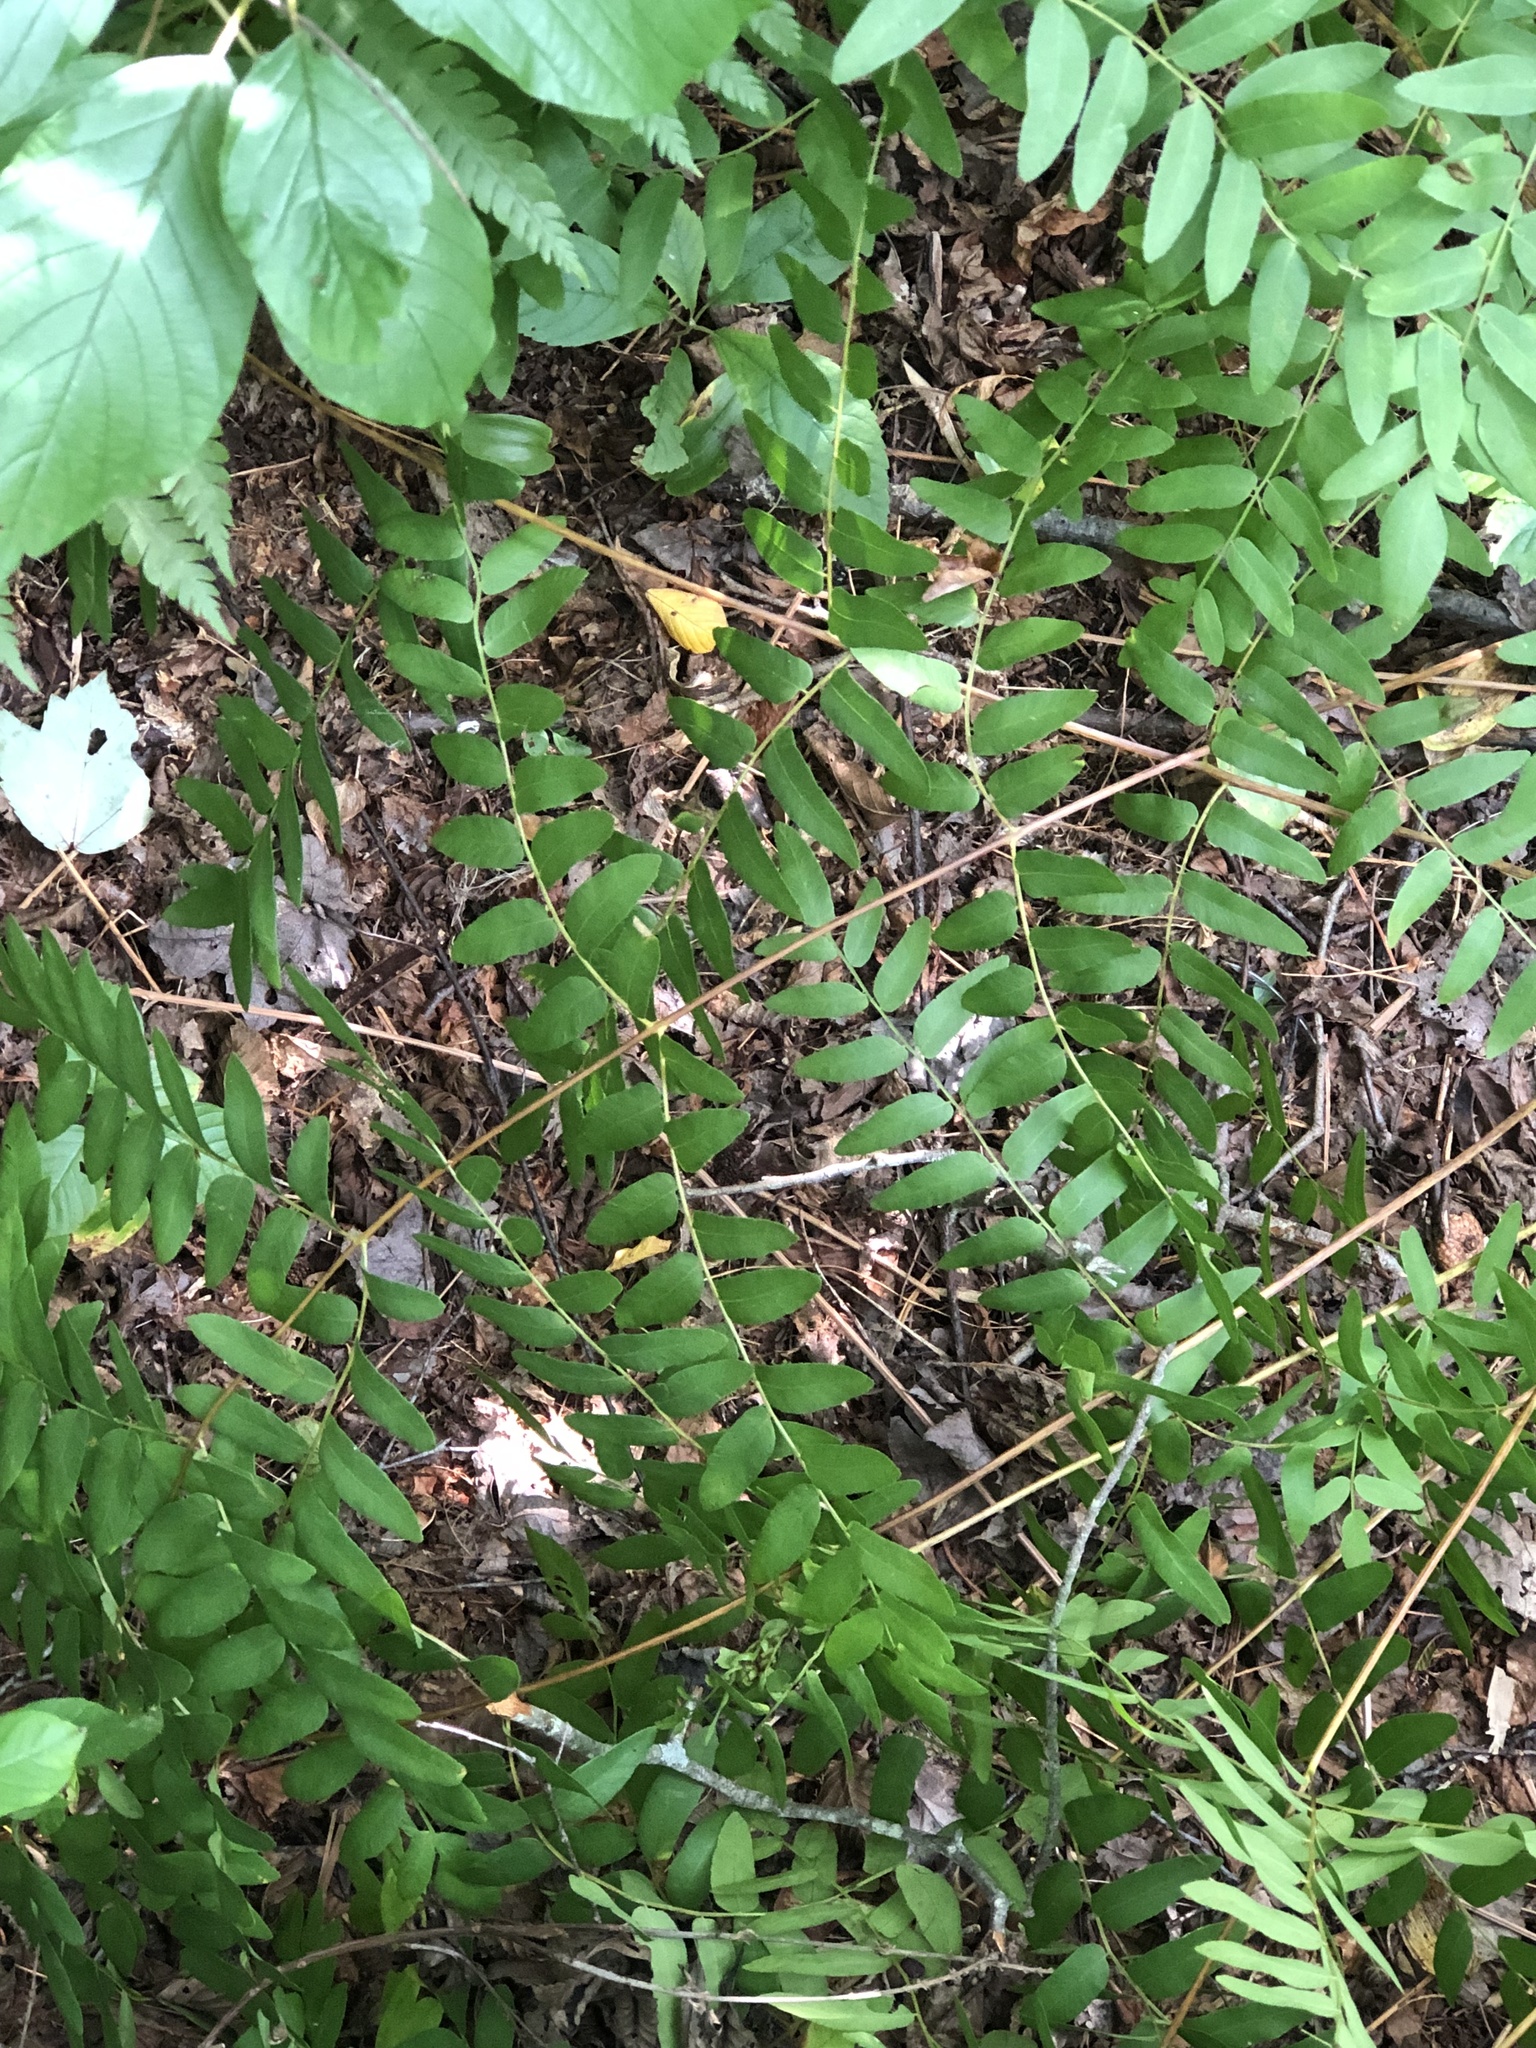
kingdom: Plantae
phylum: Tracheophyta
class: Polypodiopsida
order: Osmundales
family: Osmundaceae
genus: Osmunda
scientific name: Osmunda spectabilis
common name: American royal fern
